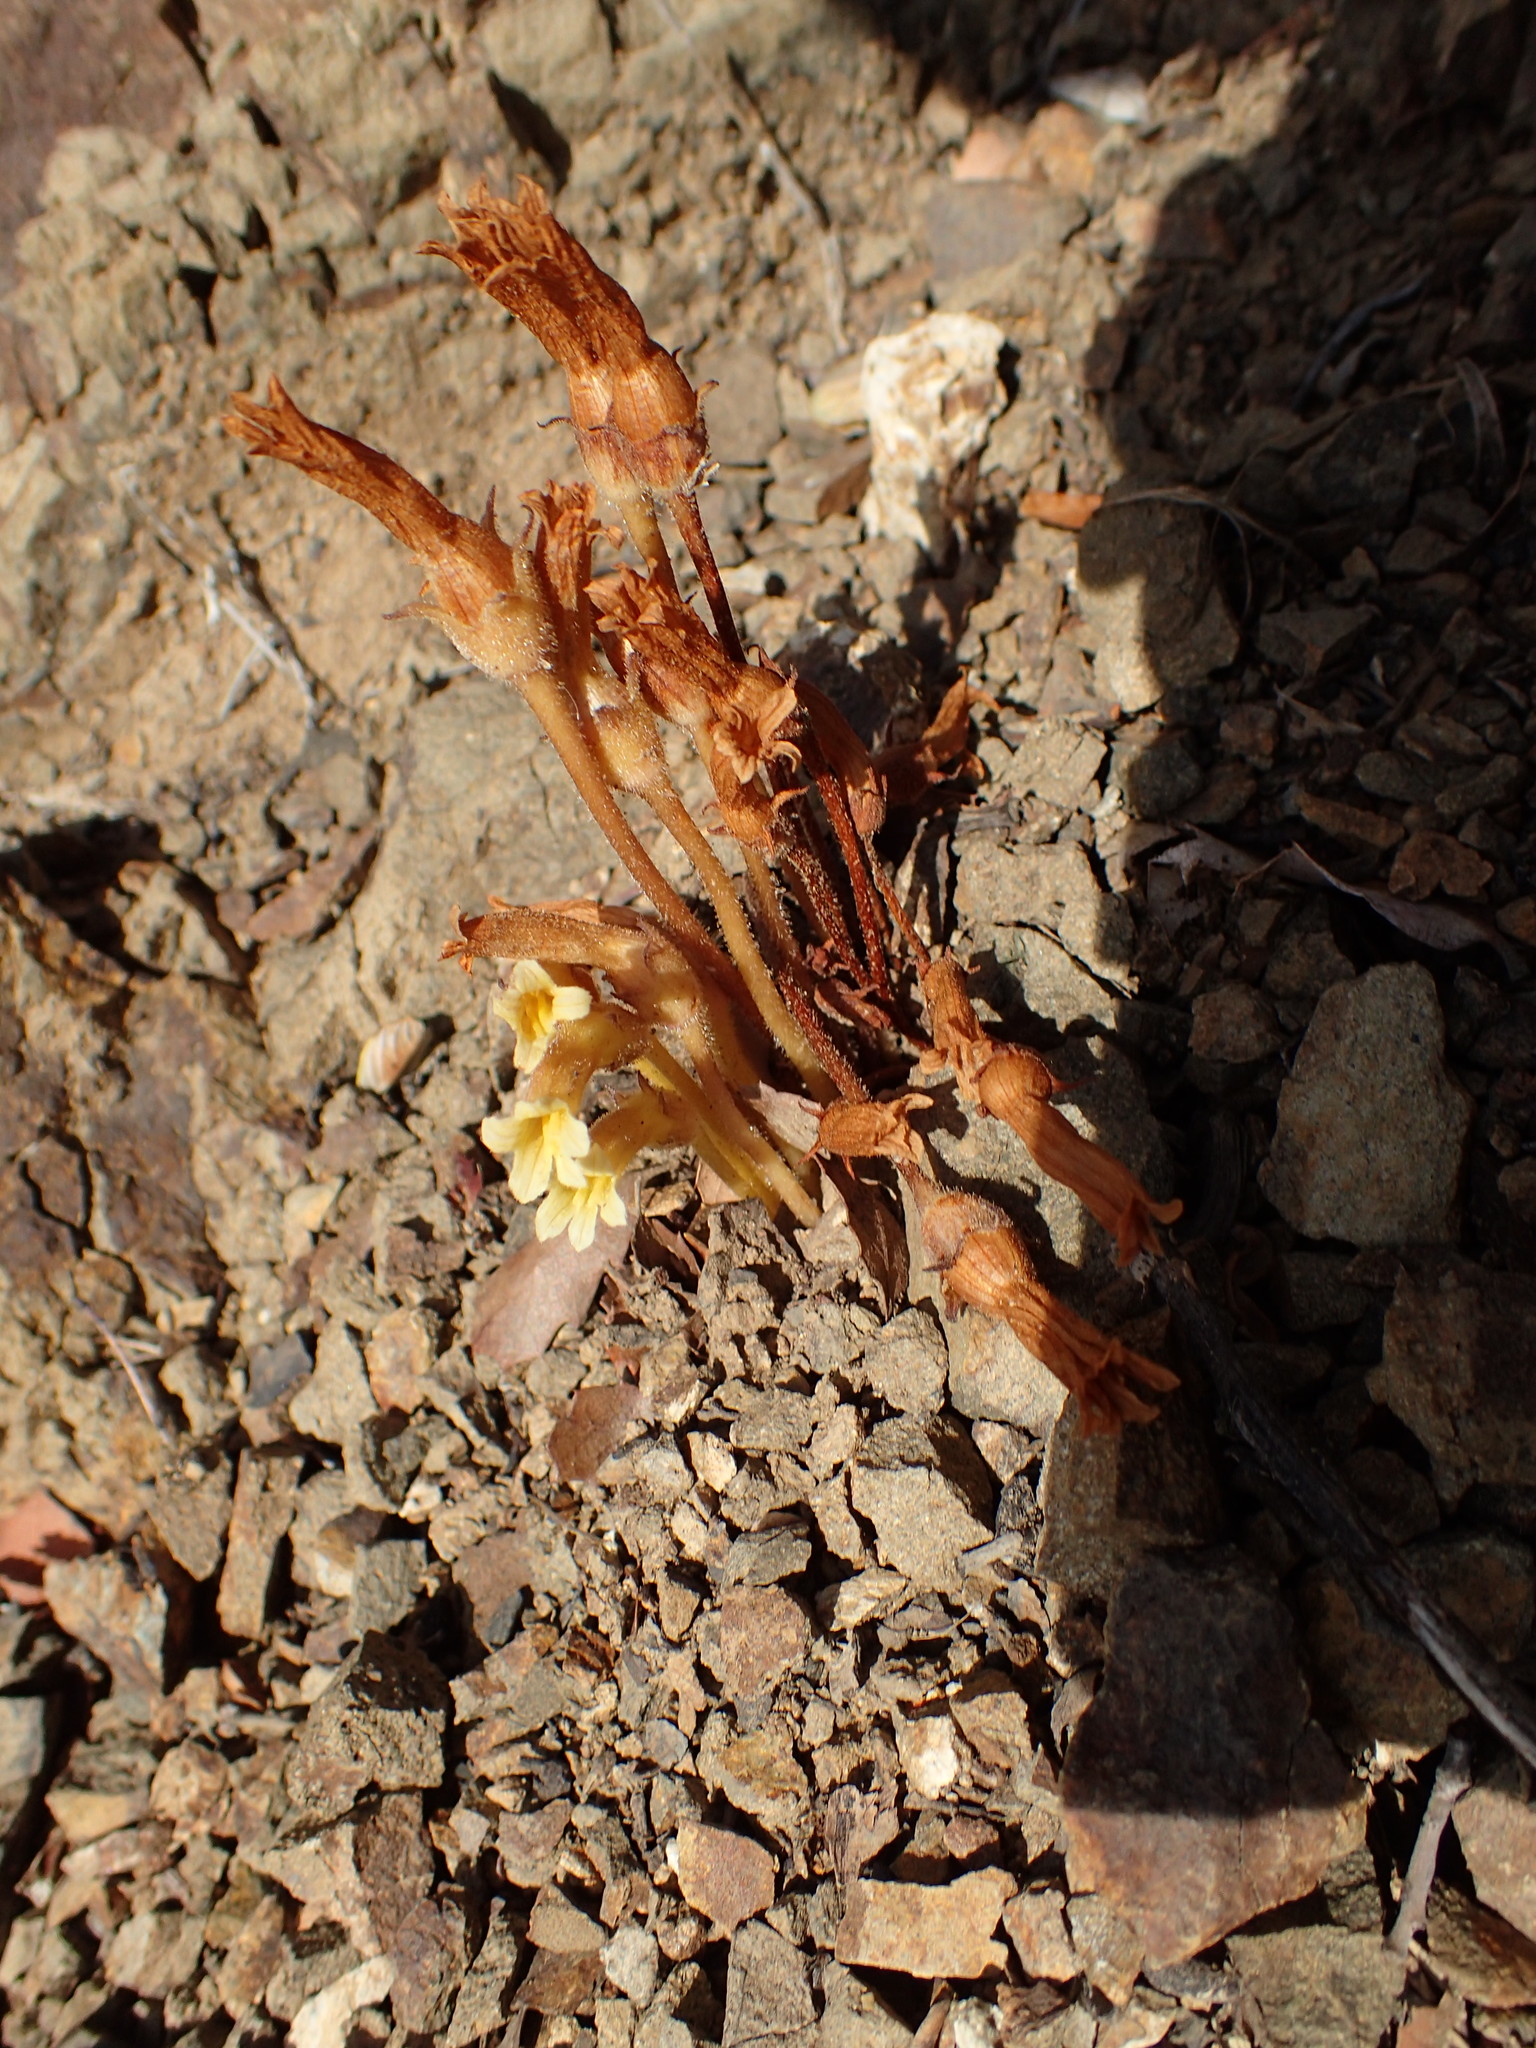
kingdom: Plantae
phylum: Tracheophyta
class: Magnoliopsida
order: Lamiales
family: Orobanchaceae
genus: Aphyllon
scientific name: Aphyllon franciscanum
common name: San francisco broomrape
